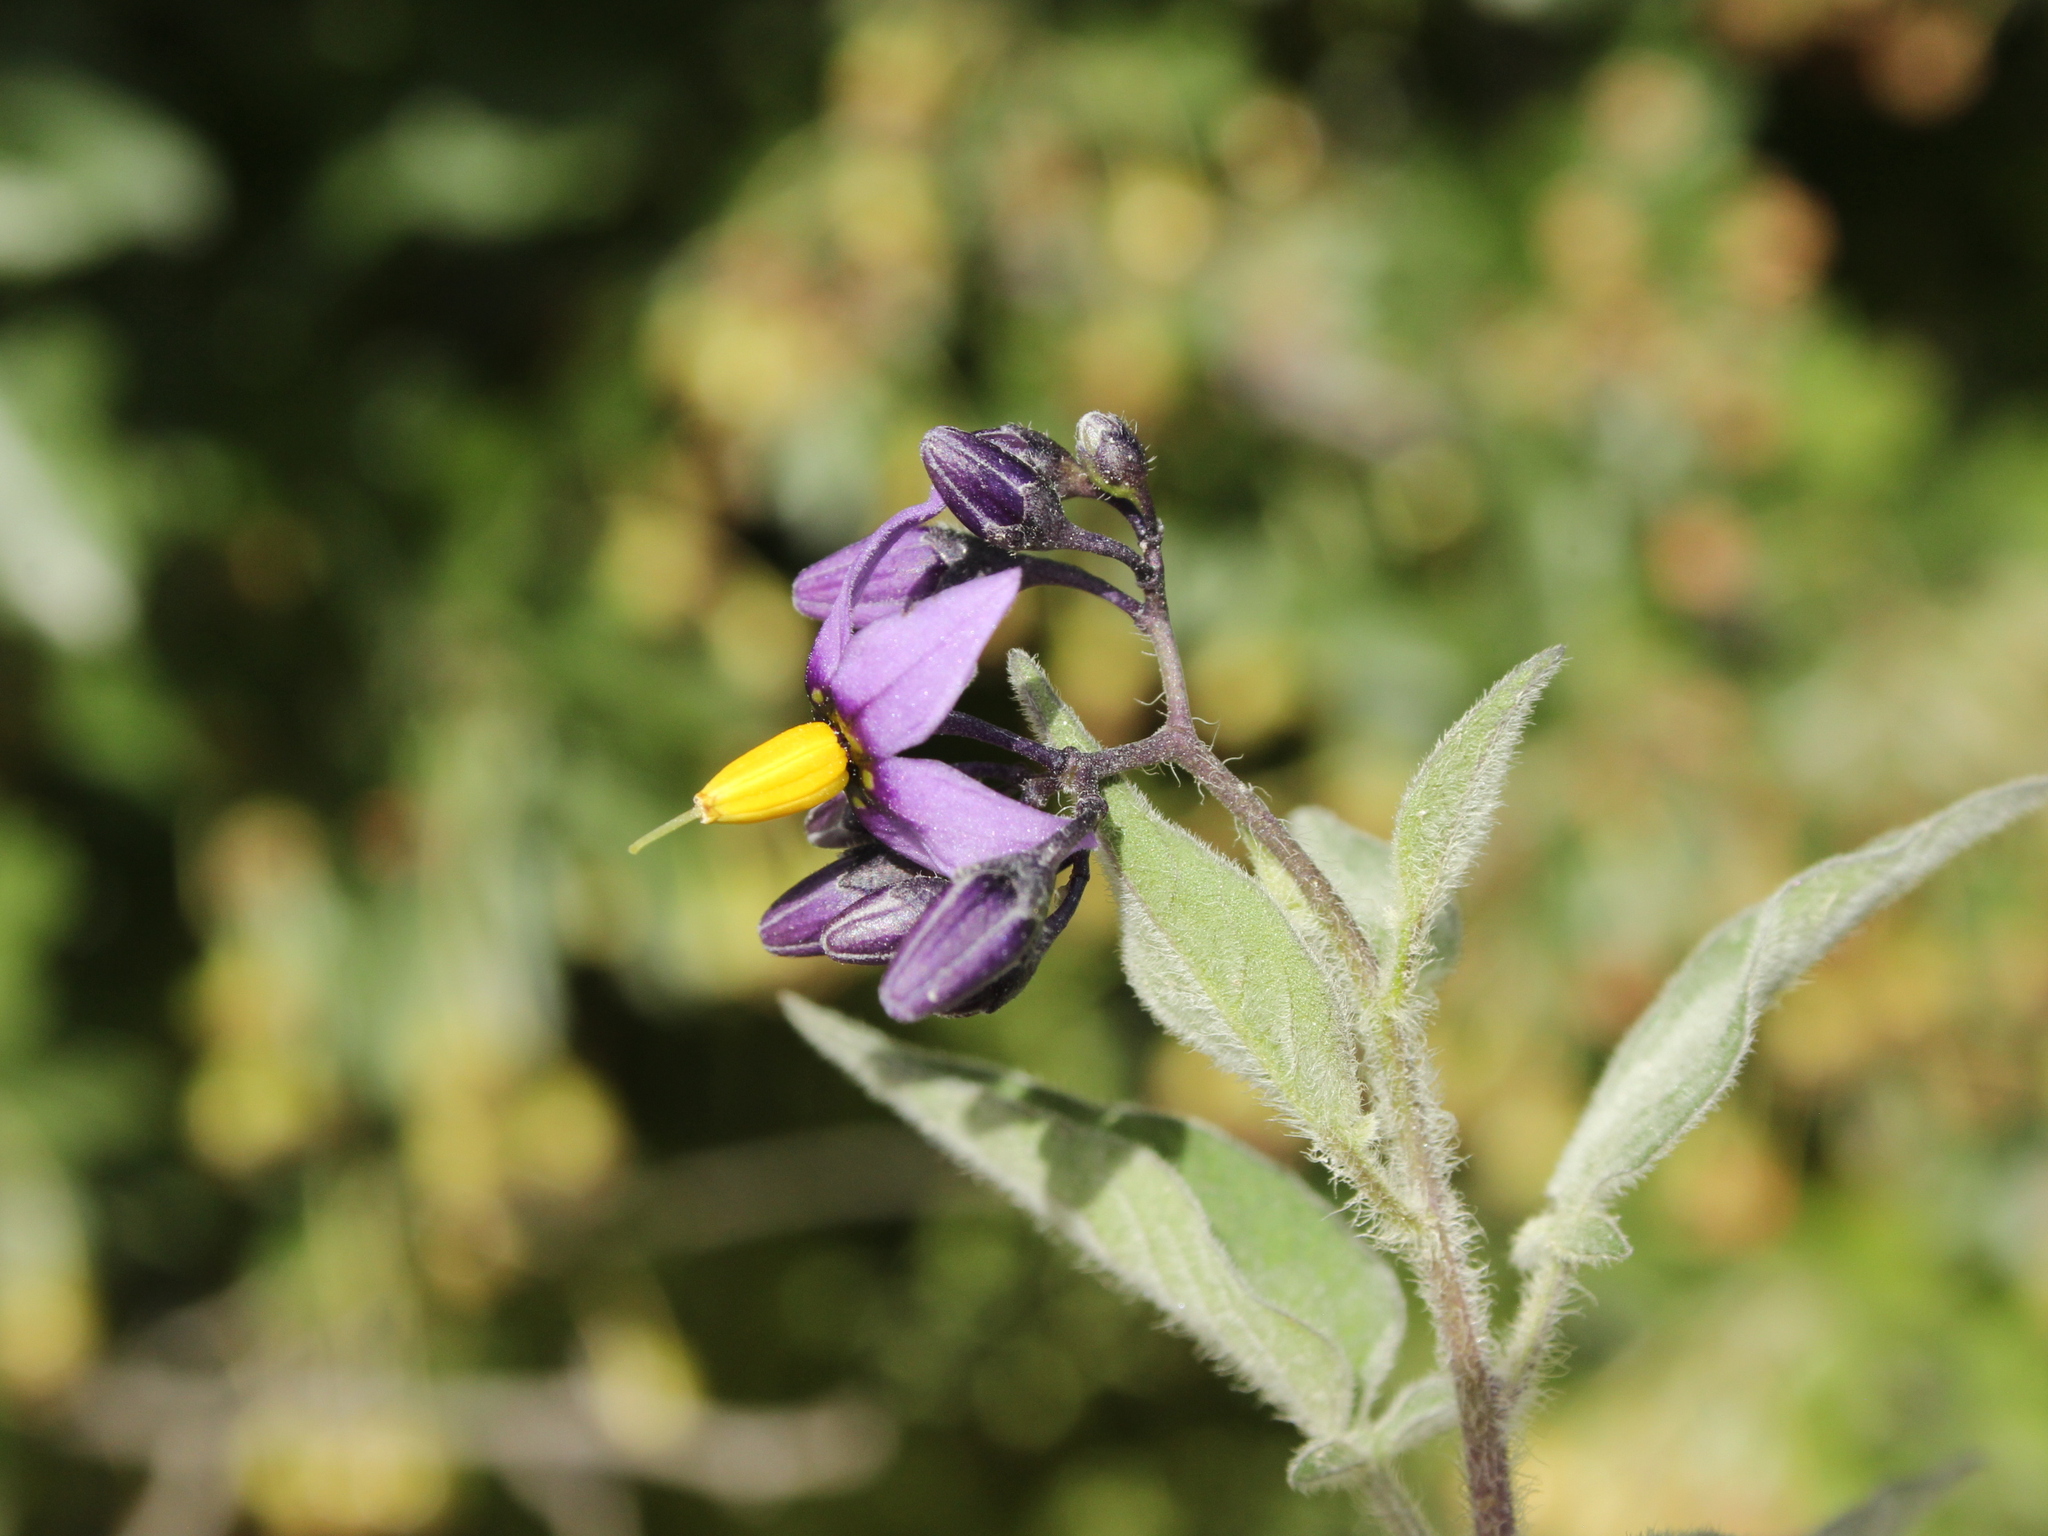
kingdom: Plantae
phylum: Tracheophyta
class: Magnoliopsida
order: Solanales
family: Solanaceae
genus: Solanum
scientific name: Solanum dulcamara
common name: Climbing nightshade
